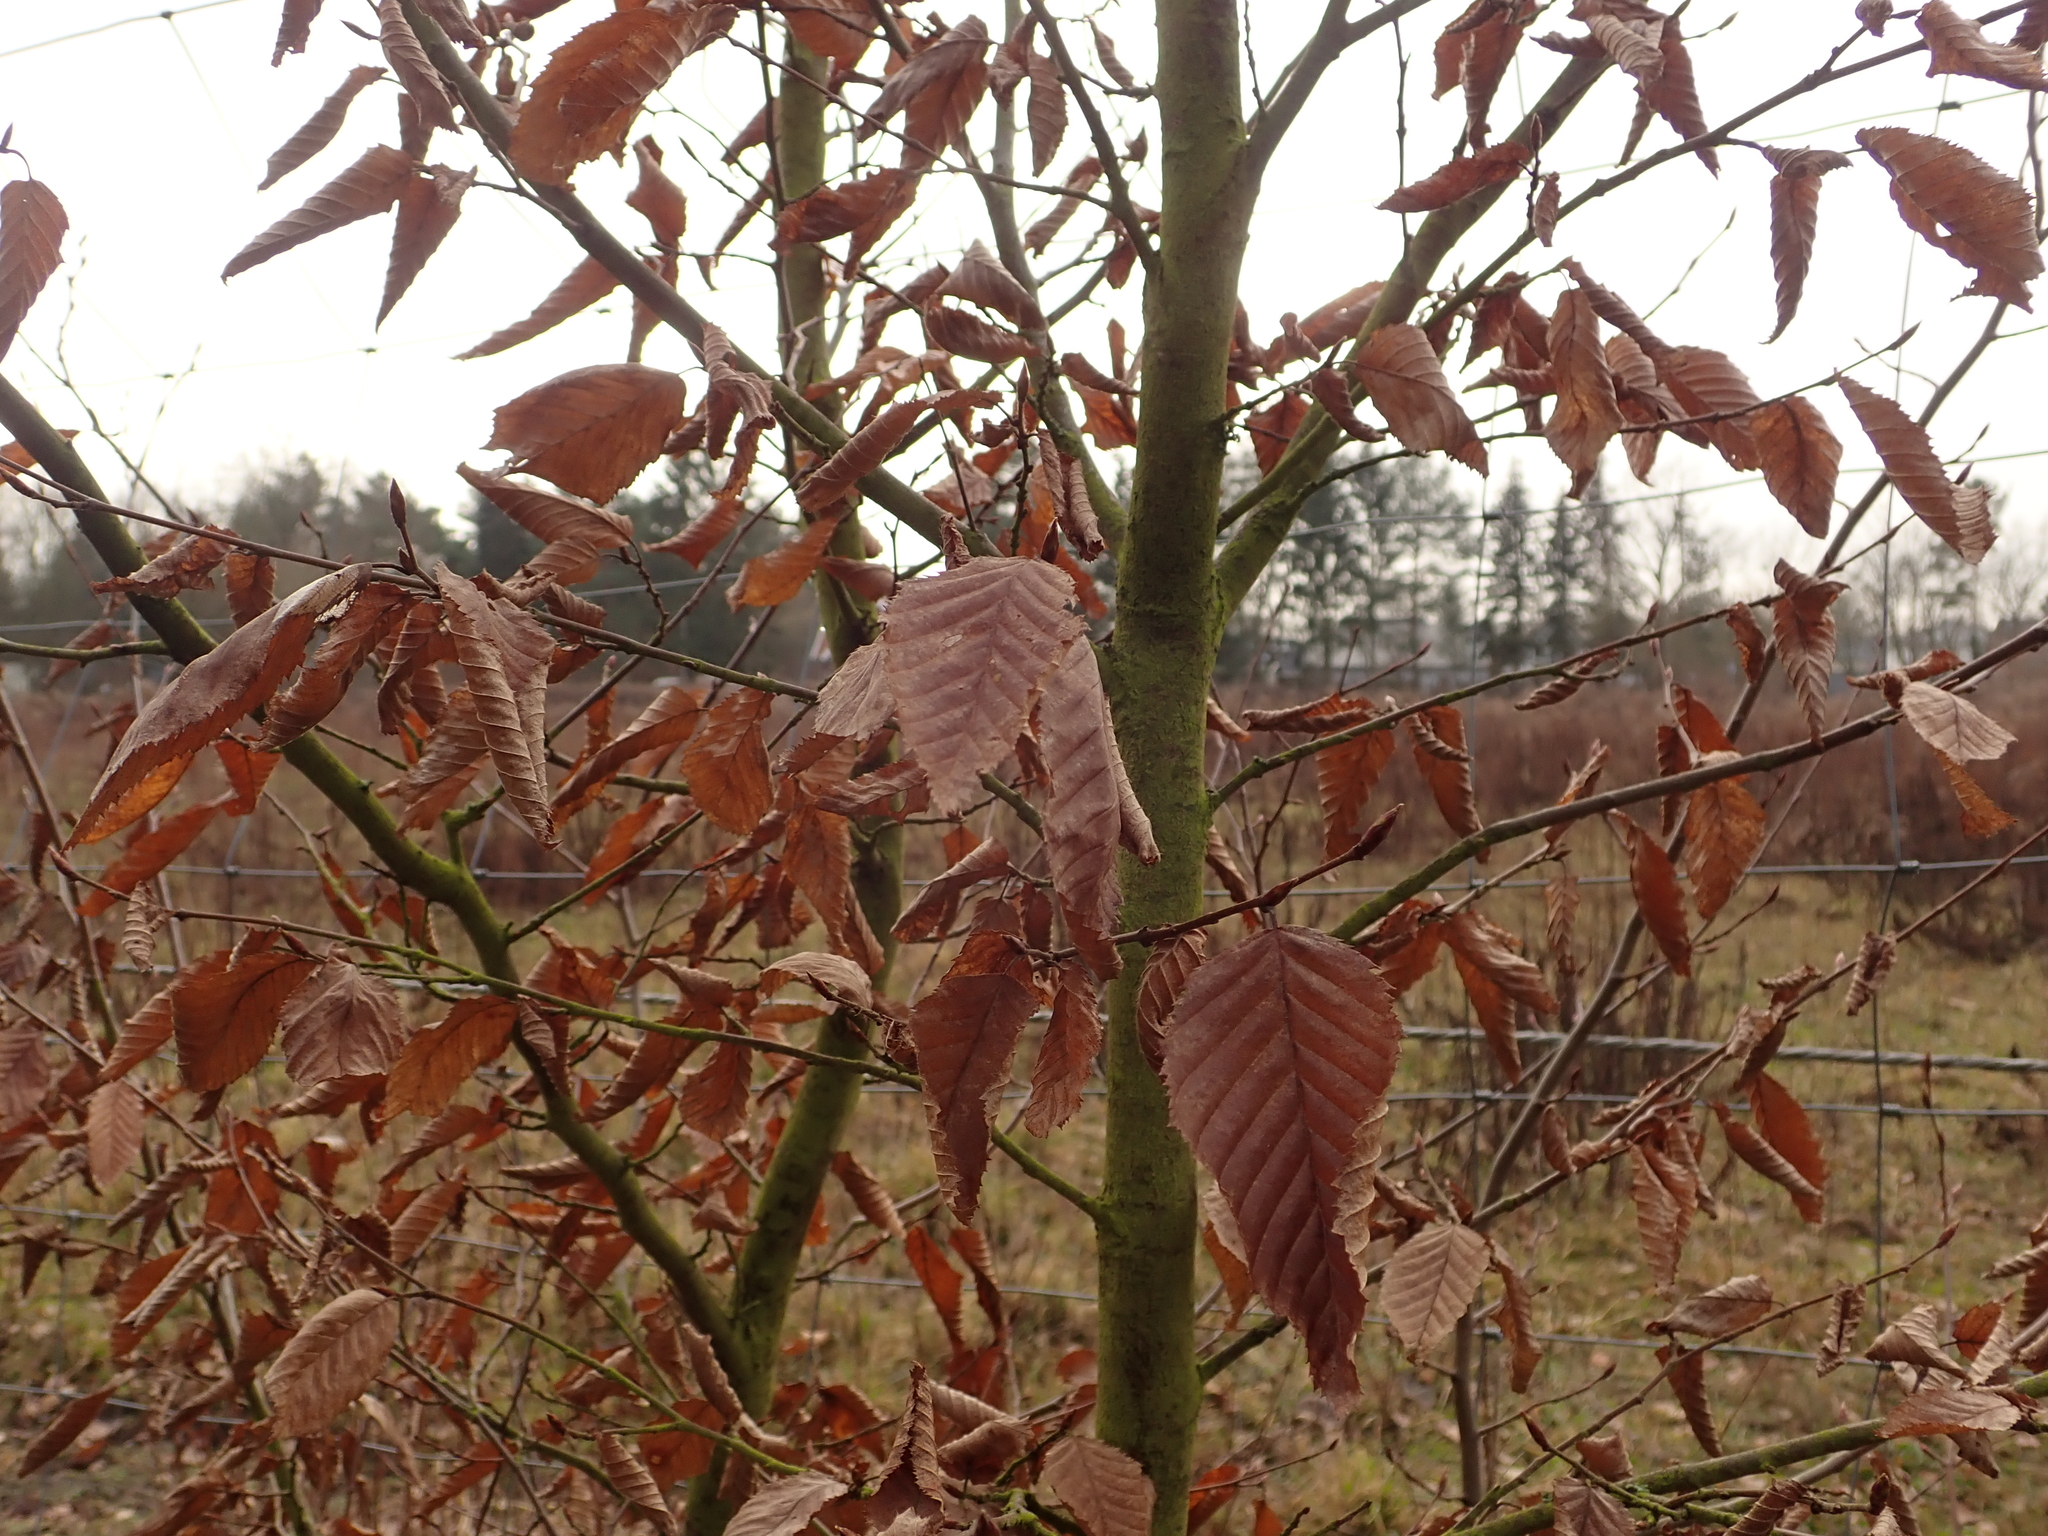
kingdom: Plantae
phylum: Tracheophyta
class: Magnoliopsida
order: Fagales
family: Betulaceae
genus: Carpinus
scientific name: Carpinus betulus
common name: Hornbeam
